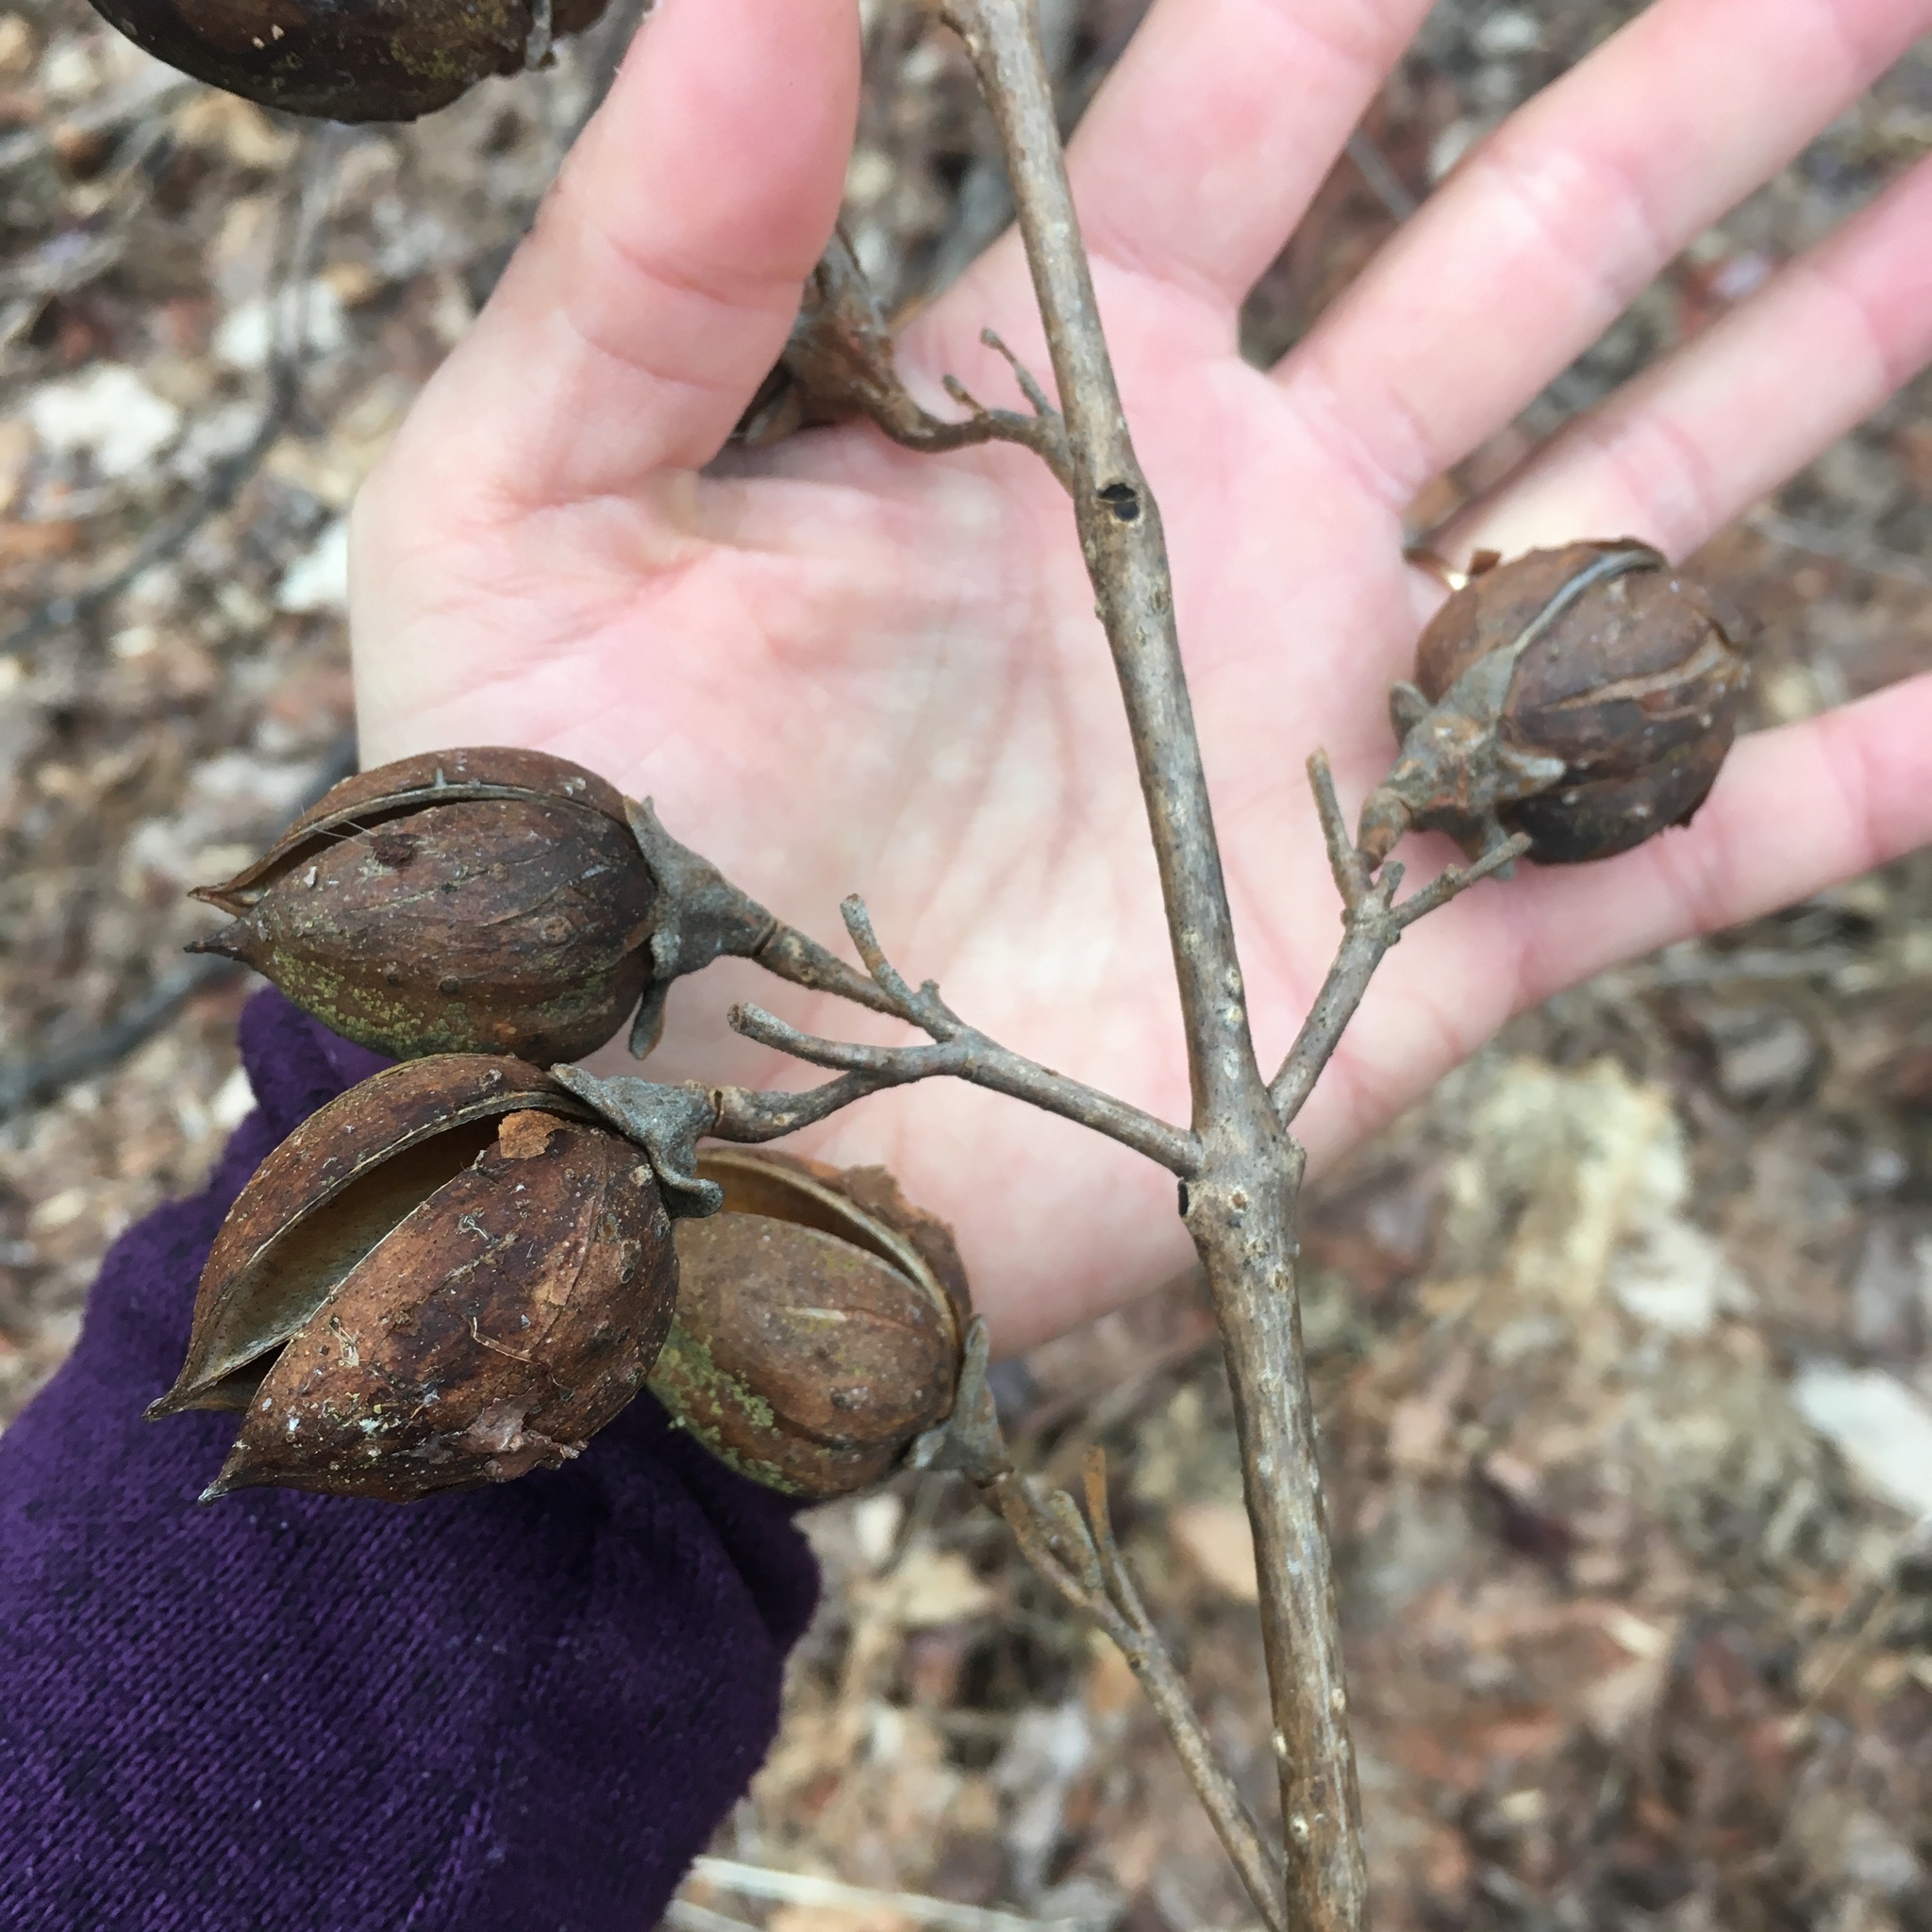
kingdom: Plantae
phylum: Tracheophyta
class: Magnoliopsida
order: Lamiales
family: Paulowniaceae
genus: Paulownia
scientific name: Paulownia tomentosa
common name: Foxglove-tree
